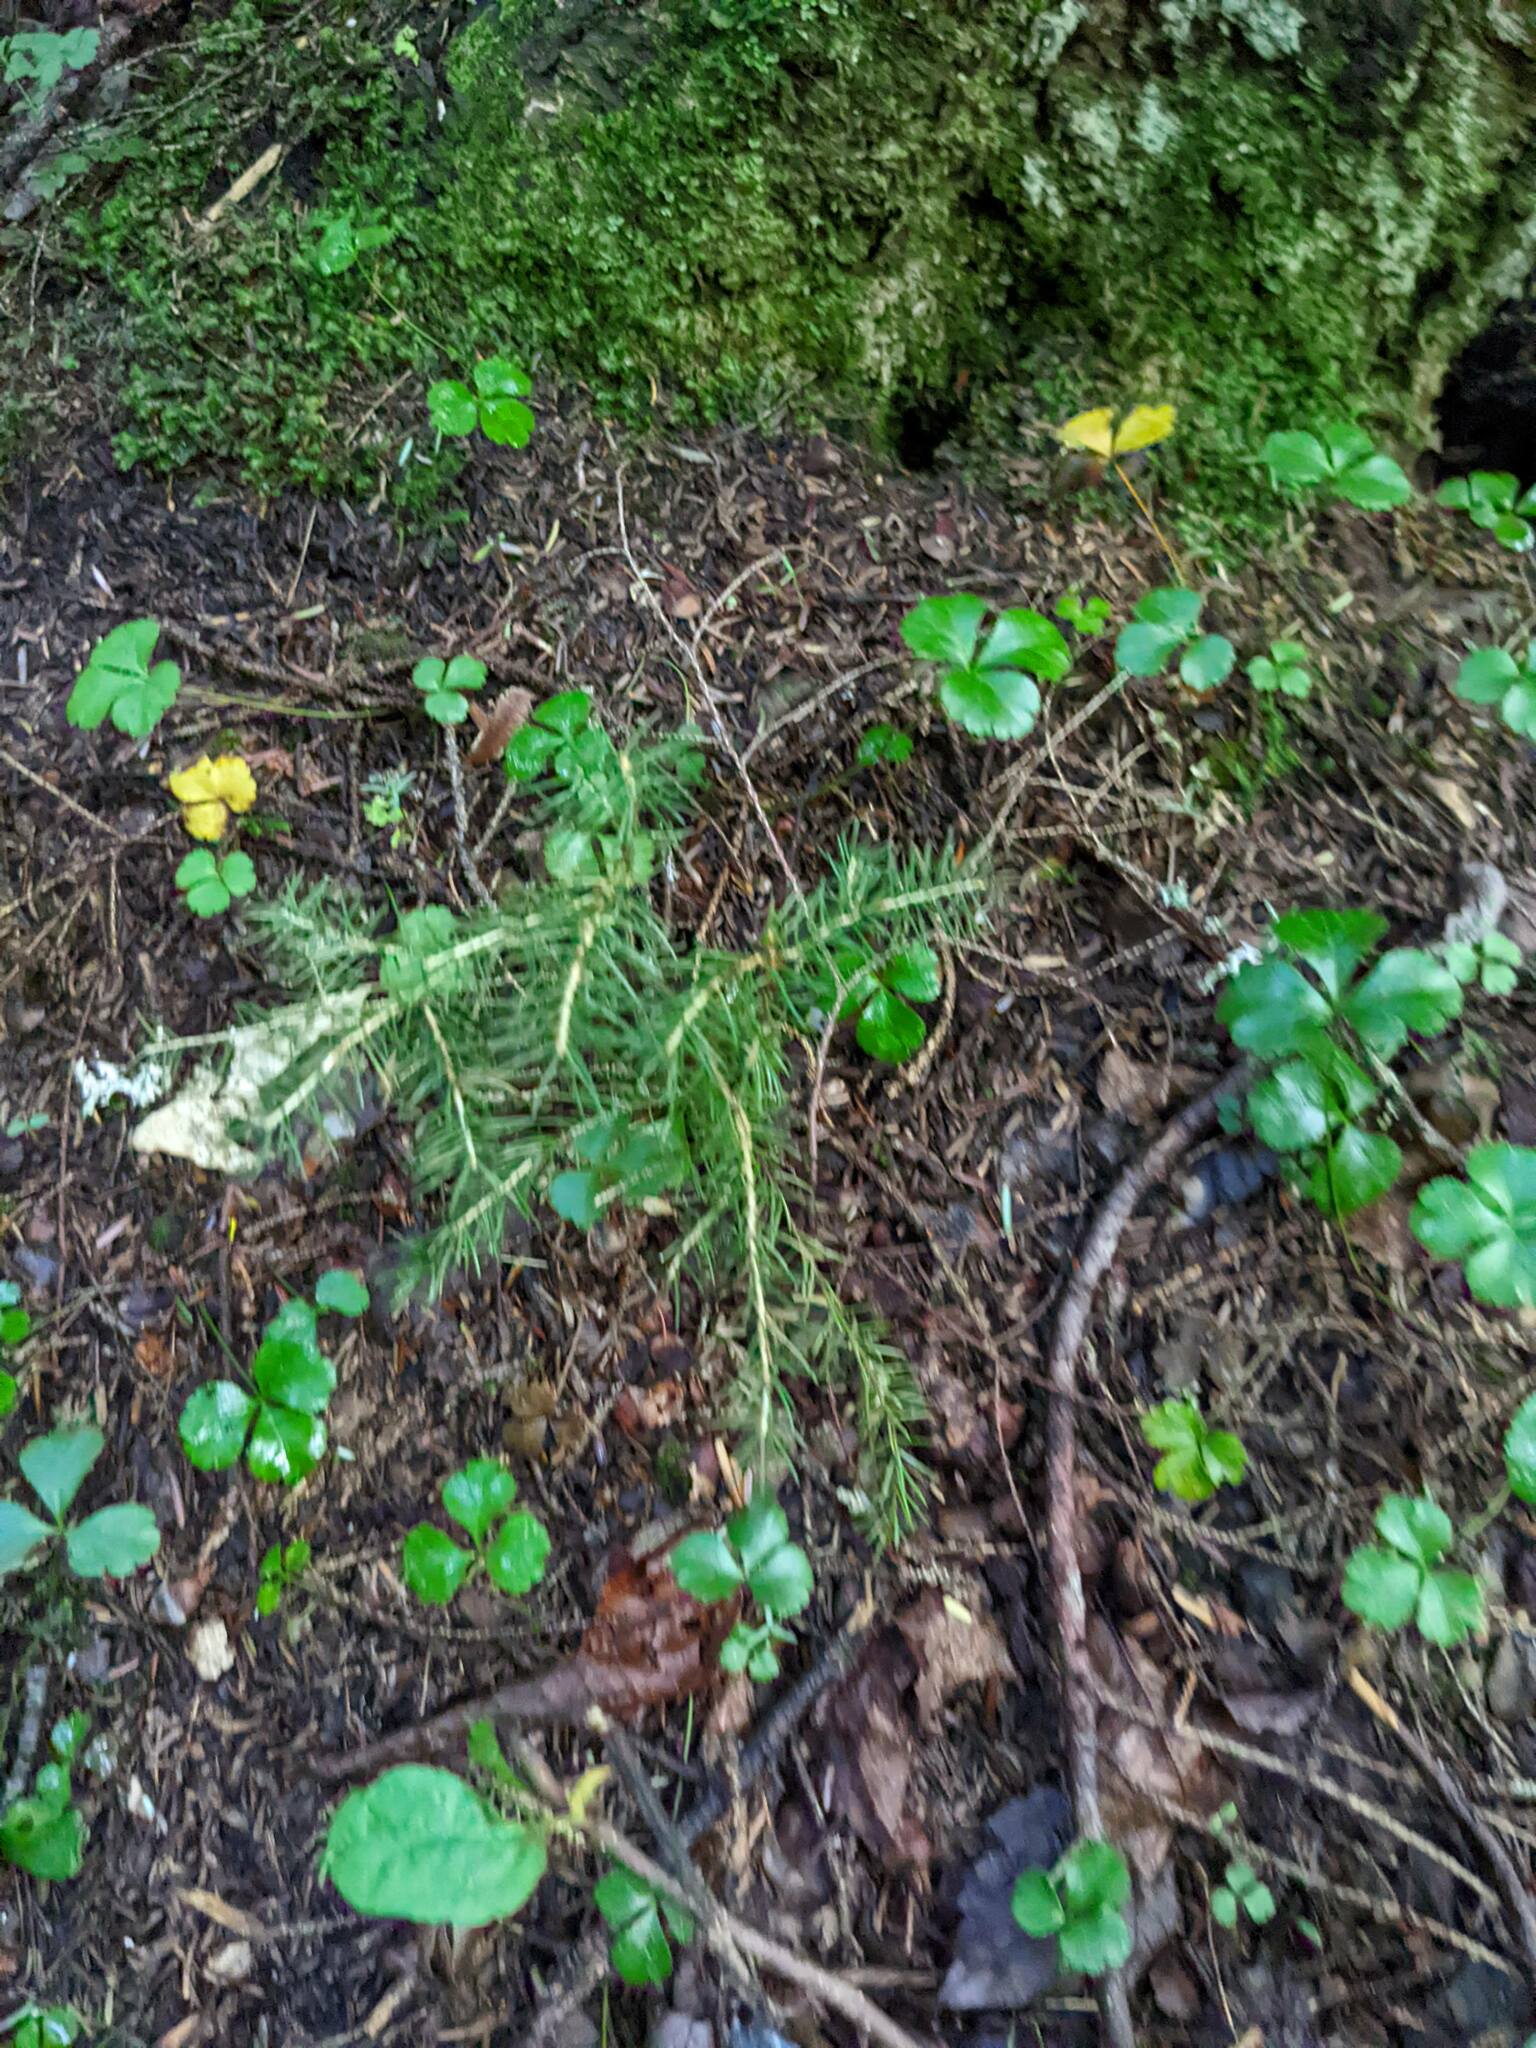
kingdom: Plantae
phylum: Tracheophyta
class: Pinopsida
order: Pinales
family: Pinaceae
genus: Picea
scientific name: Picea rubens
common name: Red spruce
